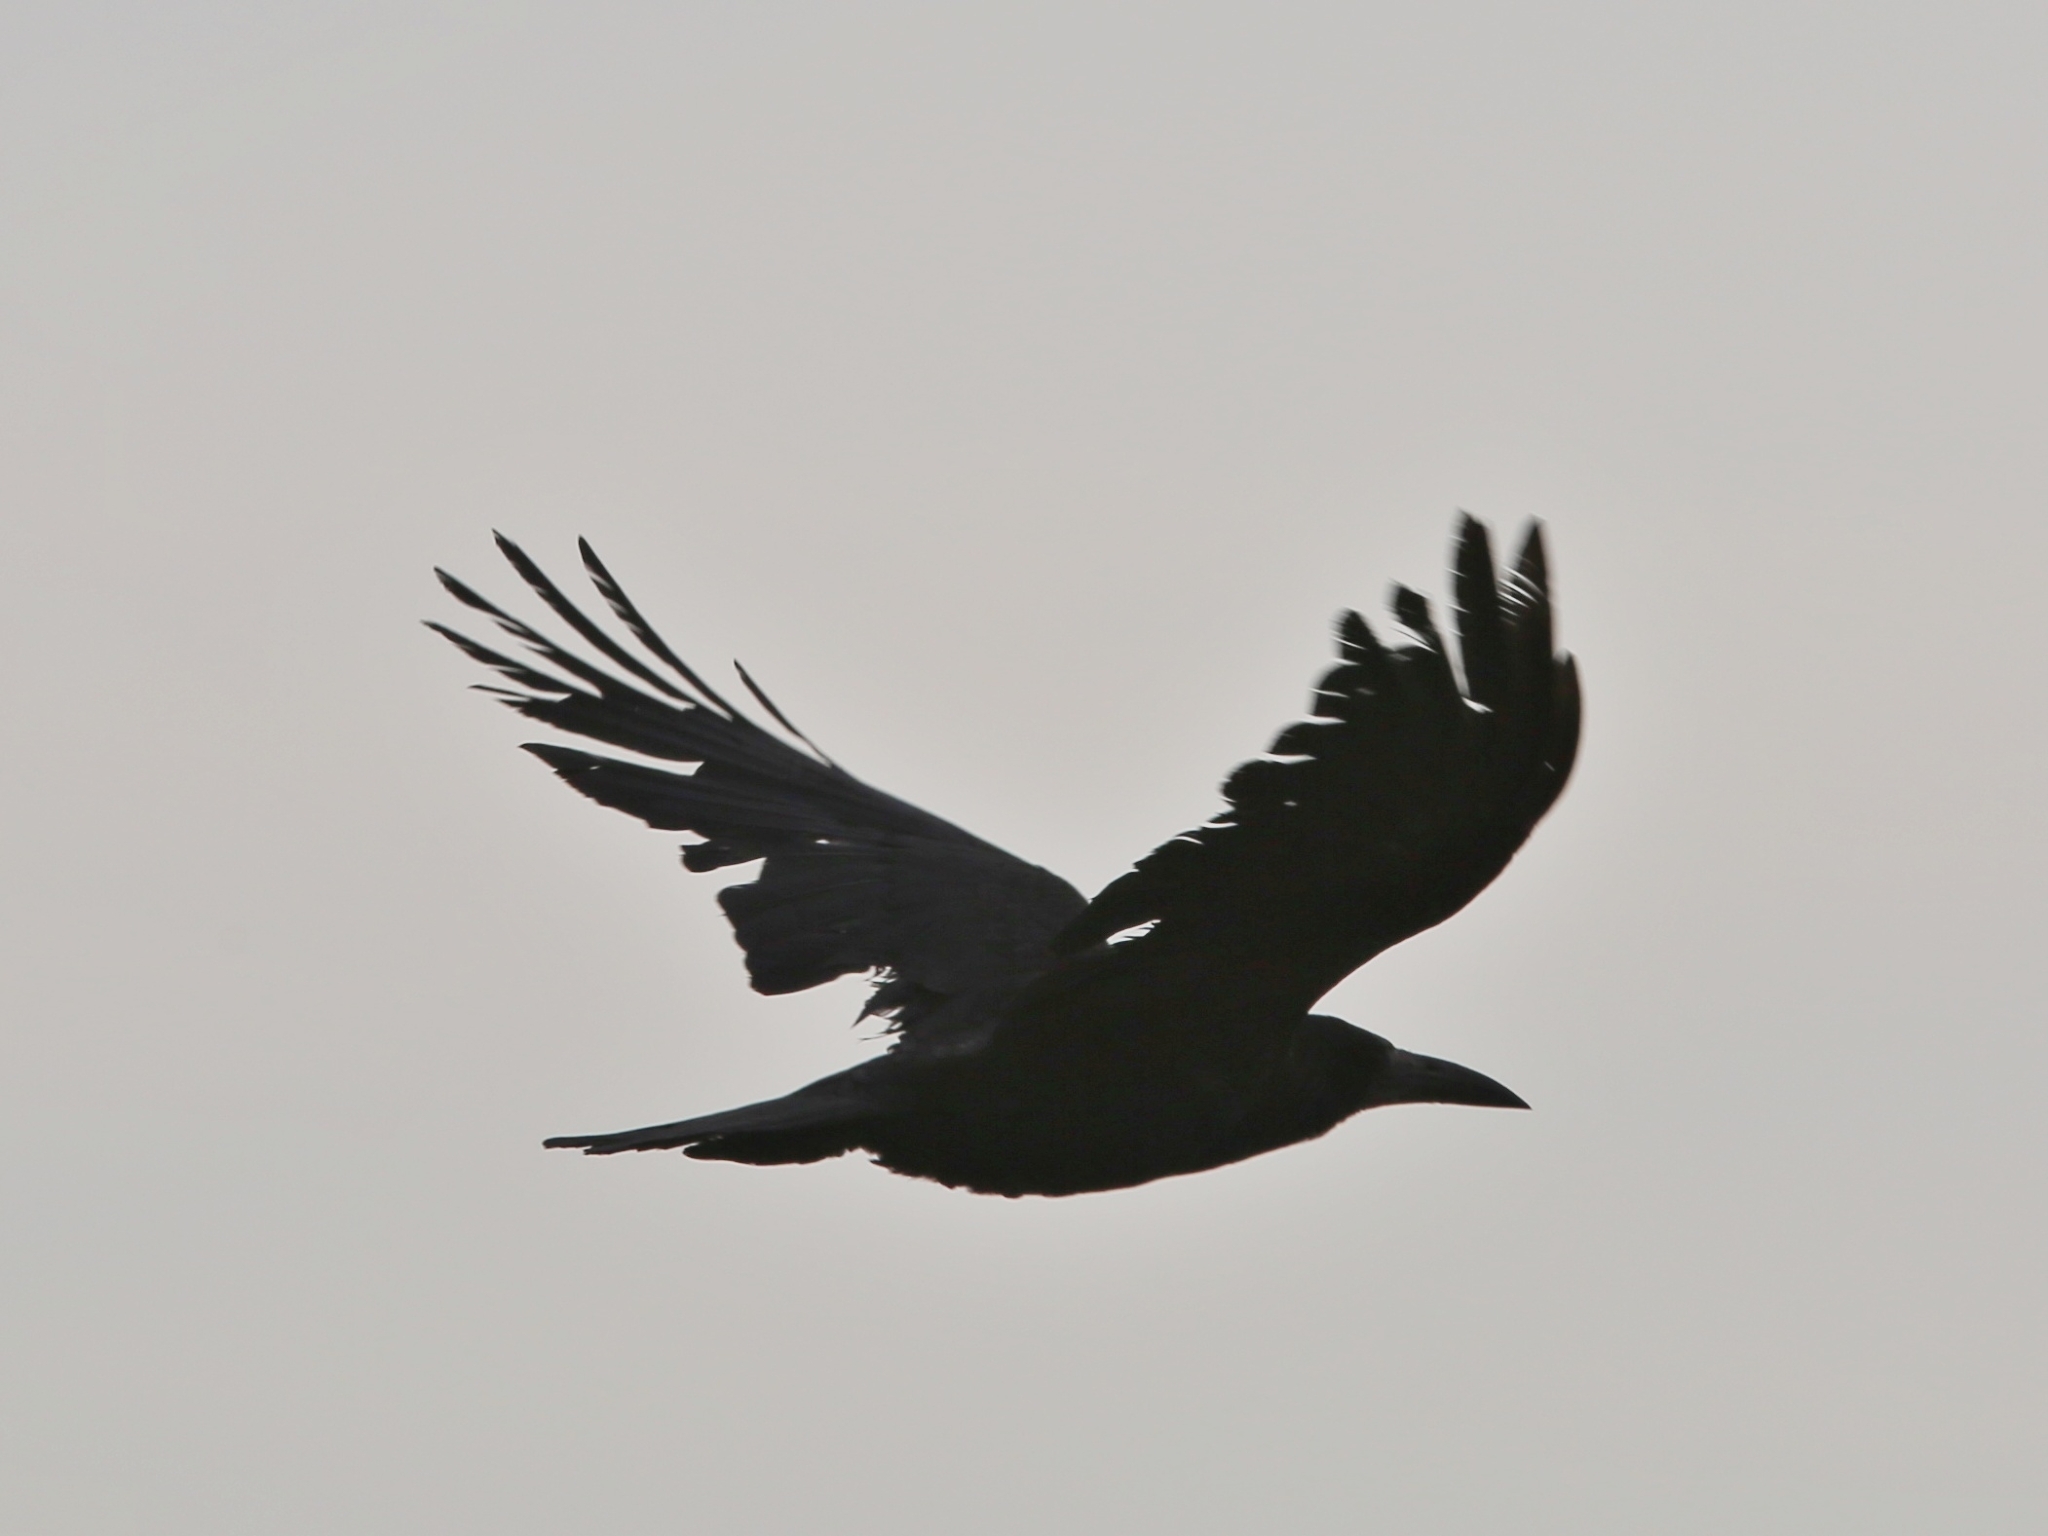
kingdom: Animalia
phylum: Chordata
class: Aves
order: Passeriformes
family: Corvidae
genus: Corvus
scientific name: Corvus corax
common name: Common raven
